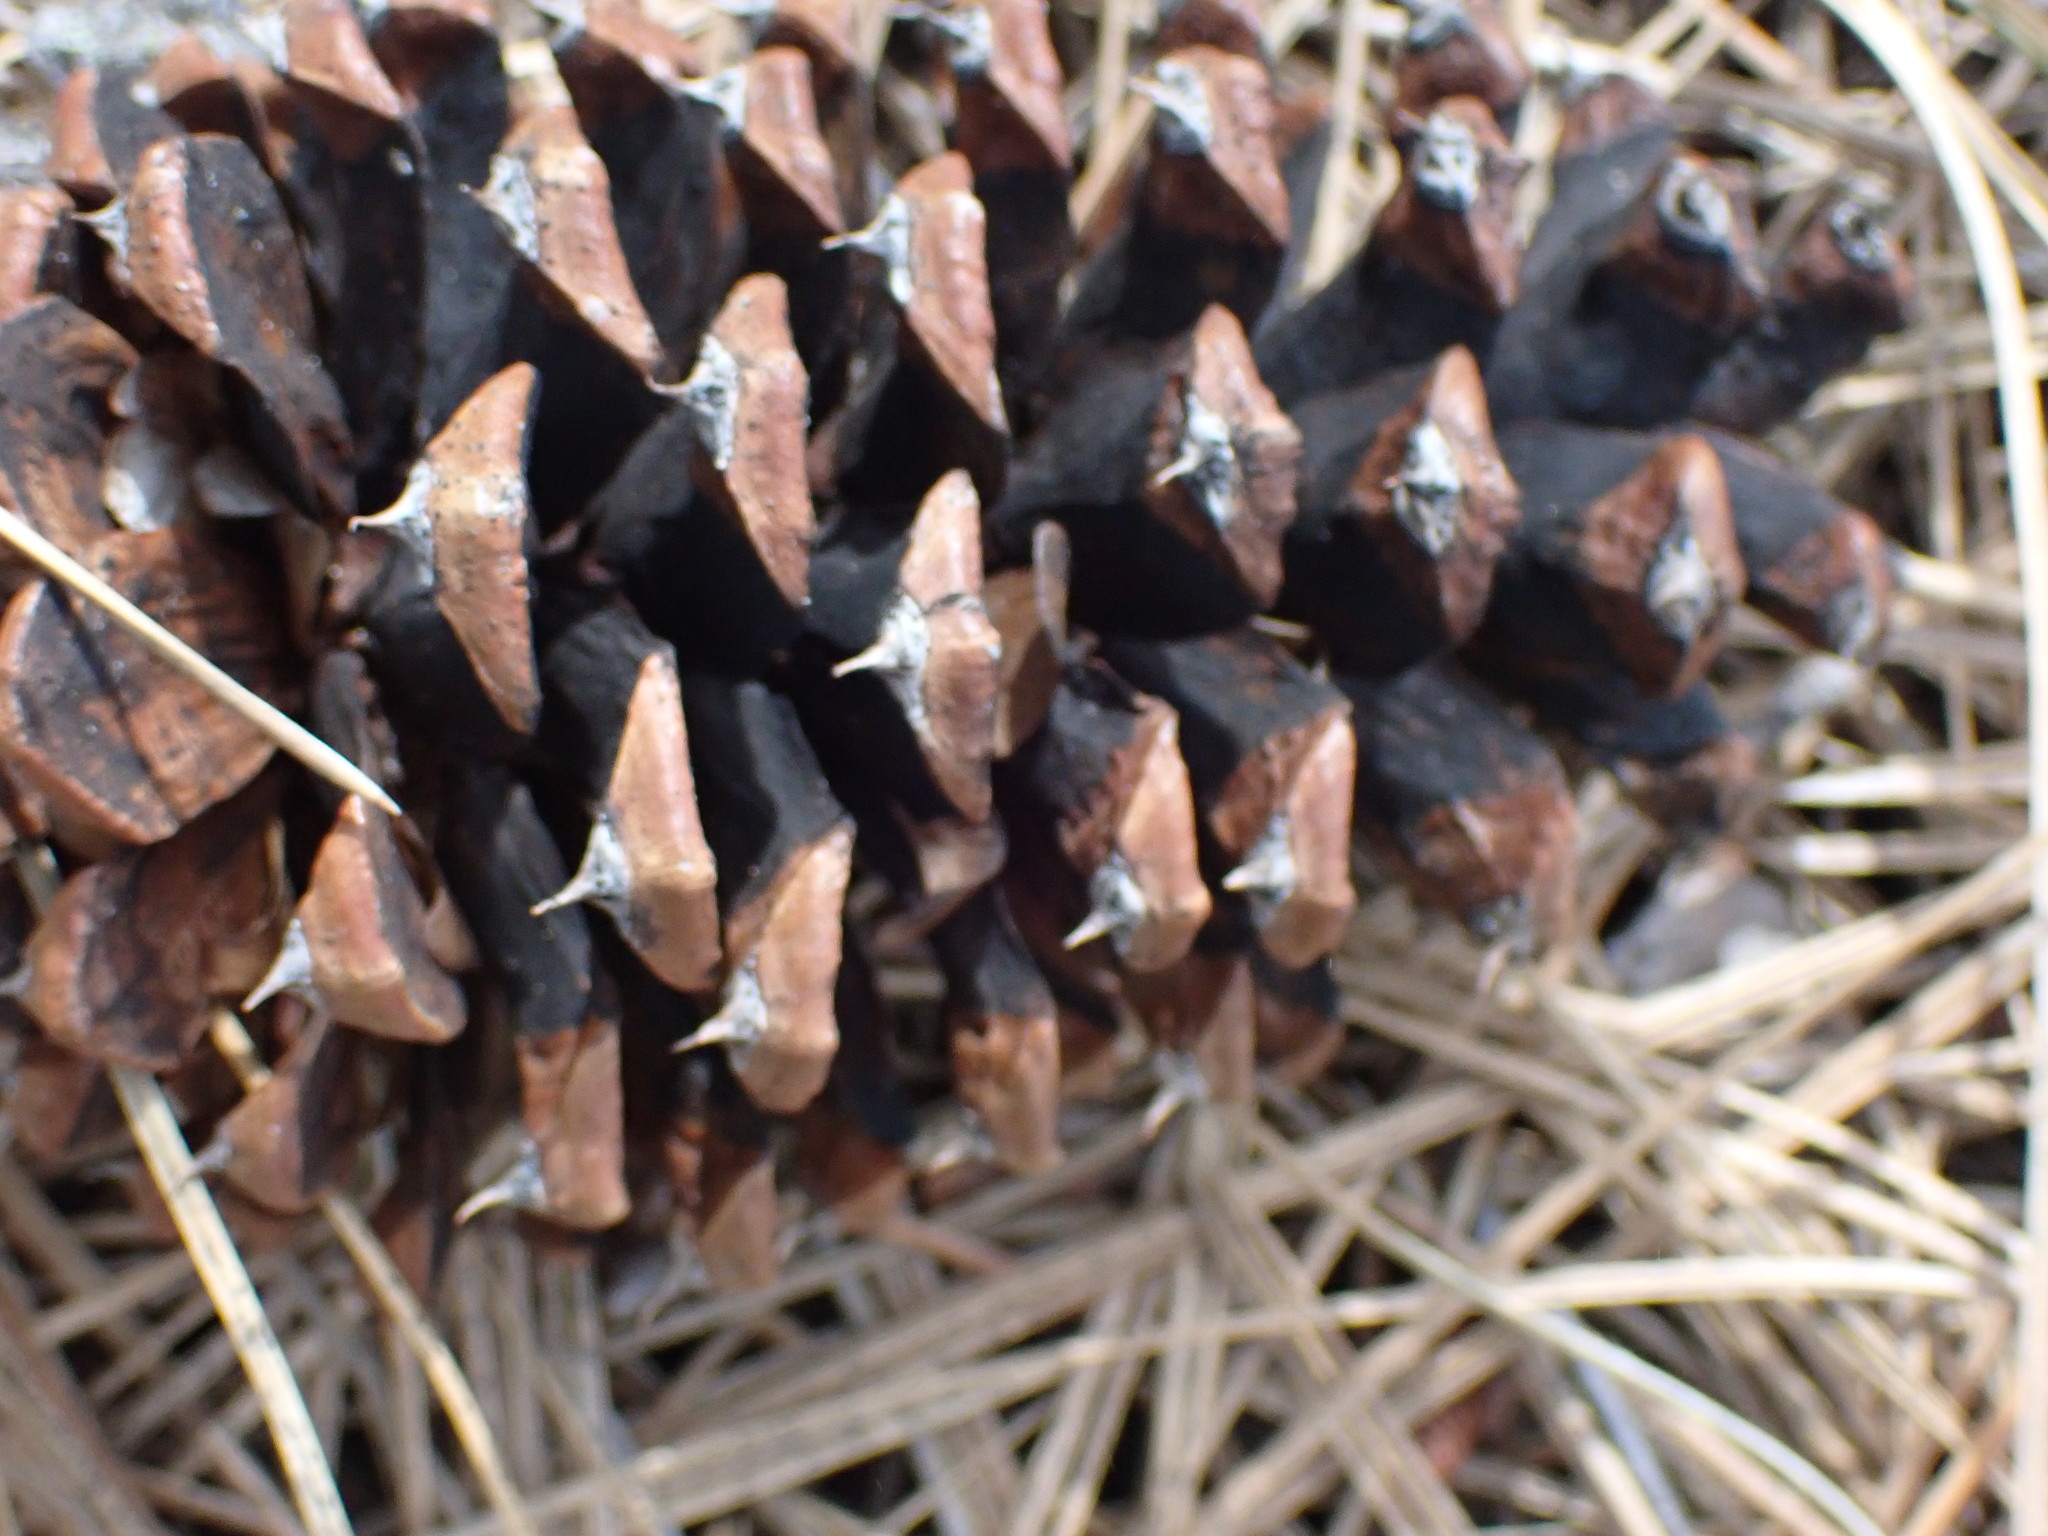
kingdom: Plantae
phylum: Tracheophyta
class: Pinopsida
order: Pinales
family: Pinaceae
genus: Pinus
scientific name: Pinus ponderosa
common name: Western yellow-pine
